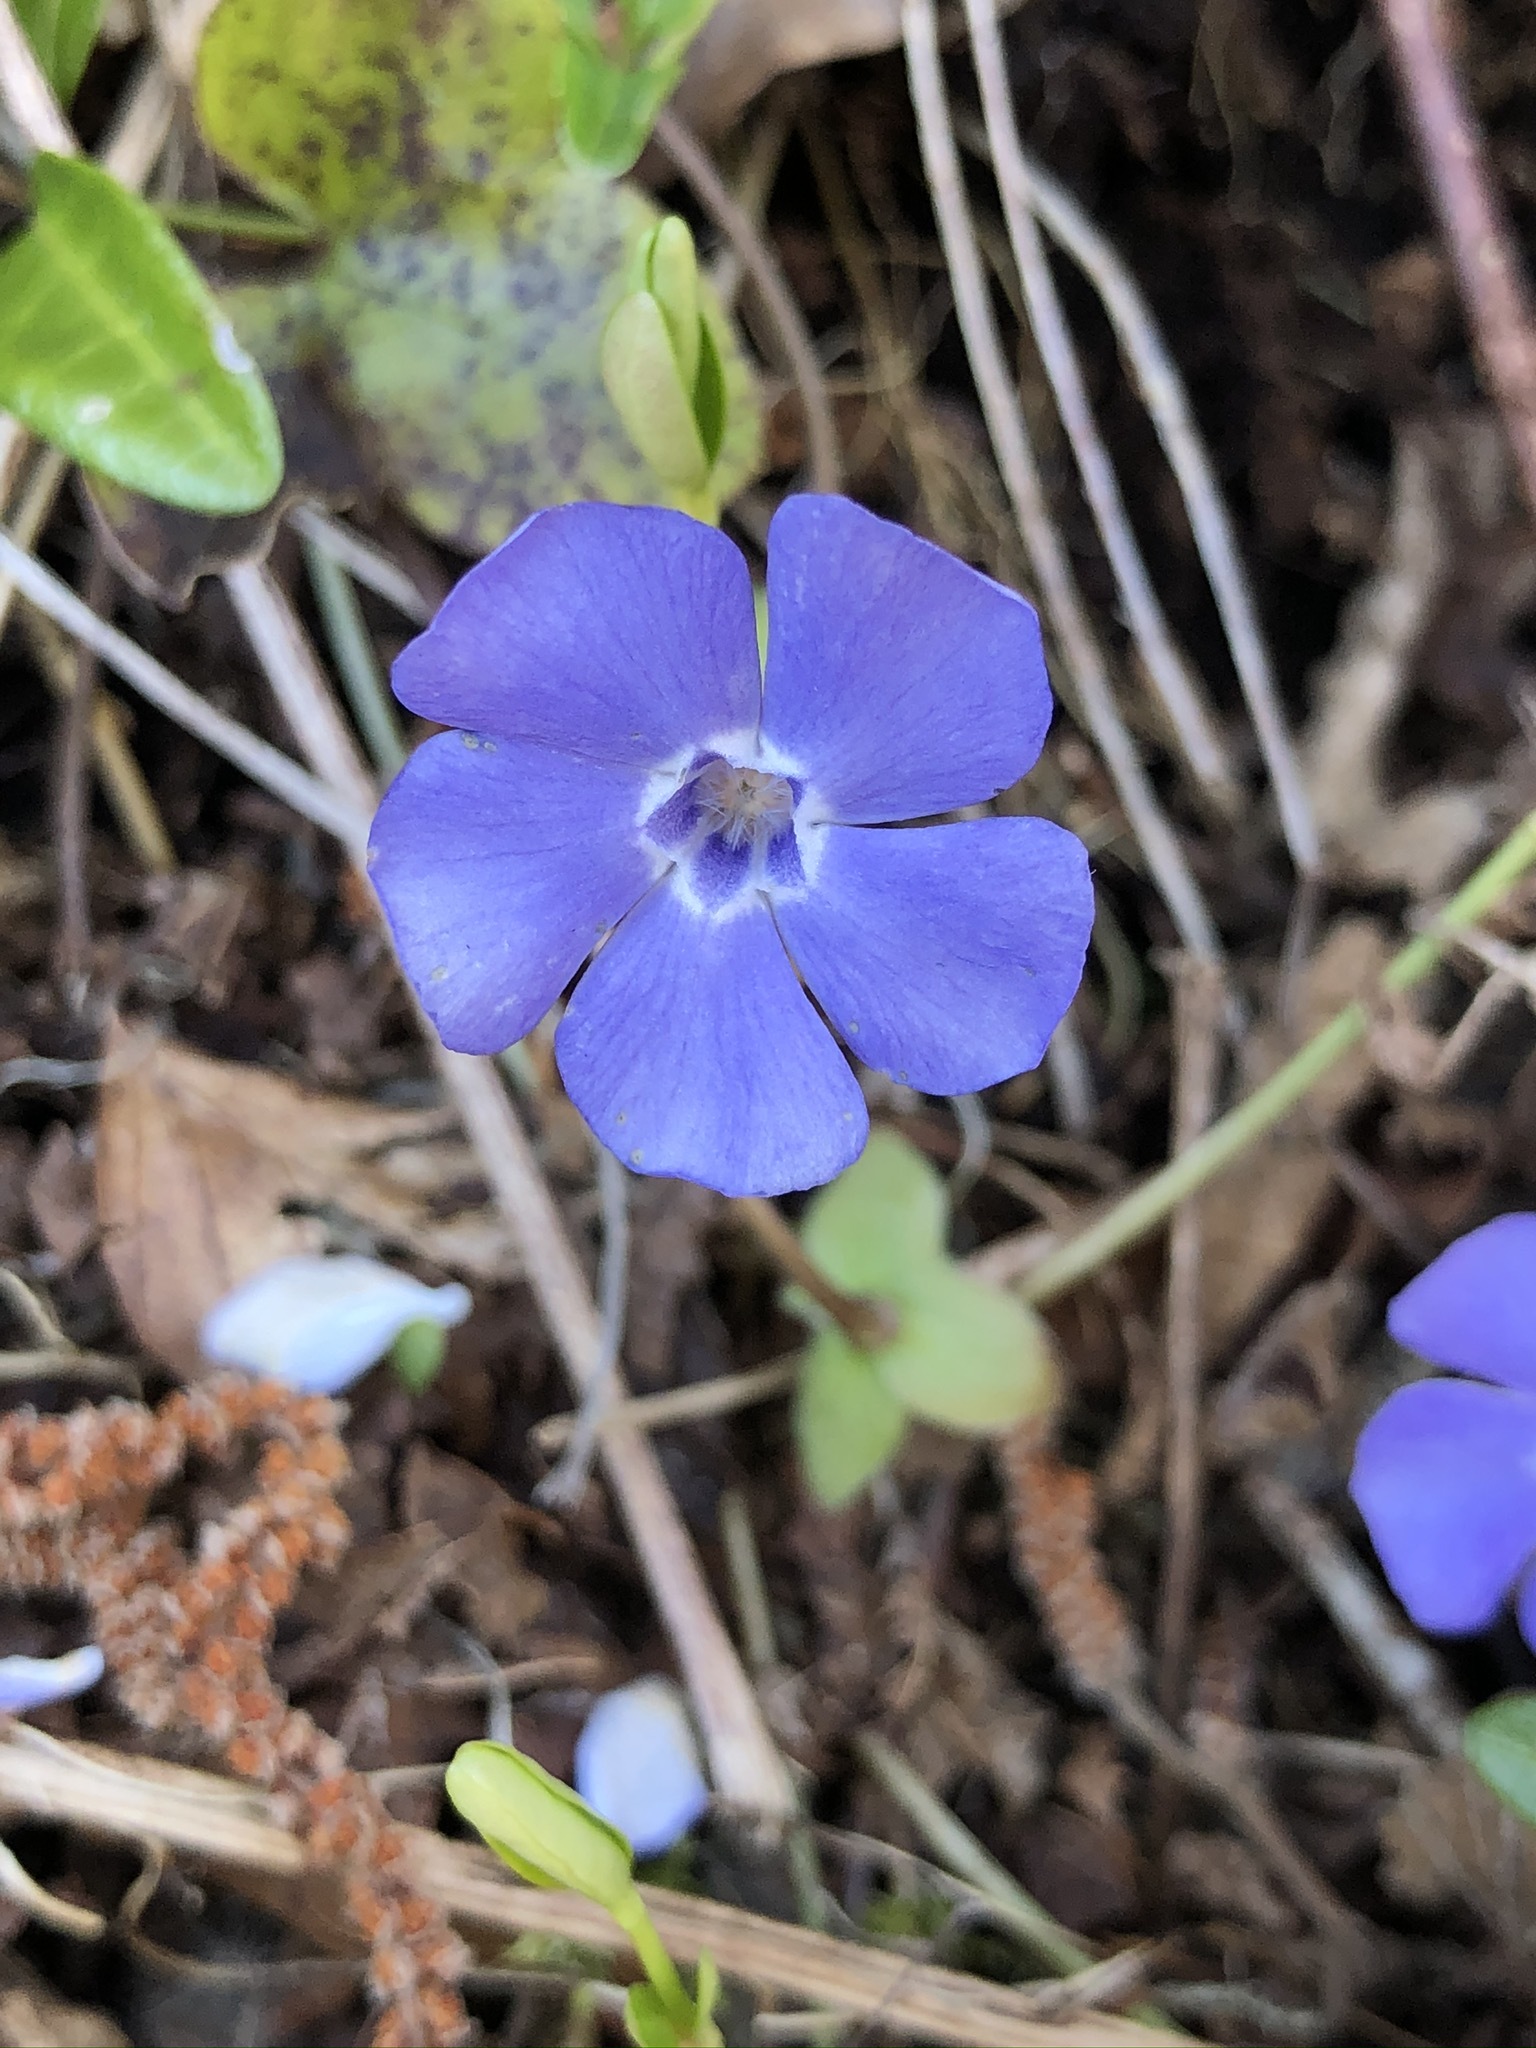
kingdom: Plantae
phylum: Tracheophyta
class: Magnoliopsida
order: Gentianales
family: Apocynaceae
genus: Vinca
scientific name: Vinca minor
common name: Lesser periwinkle
